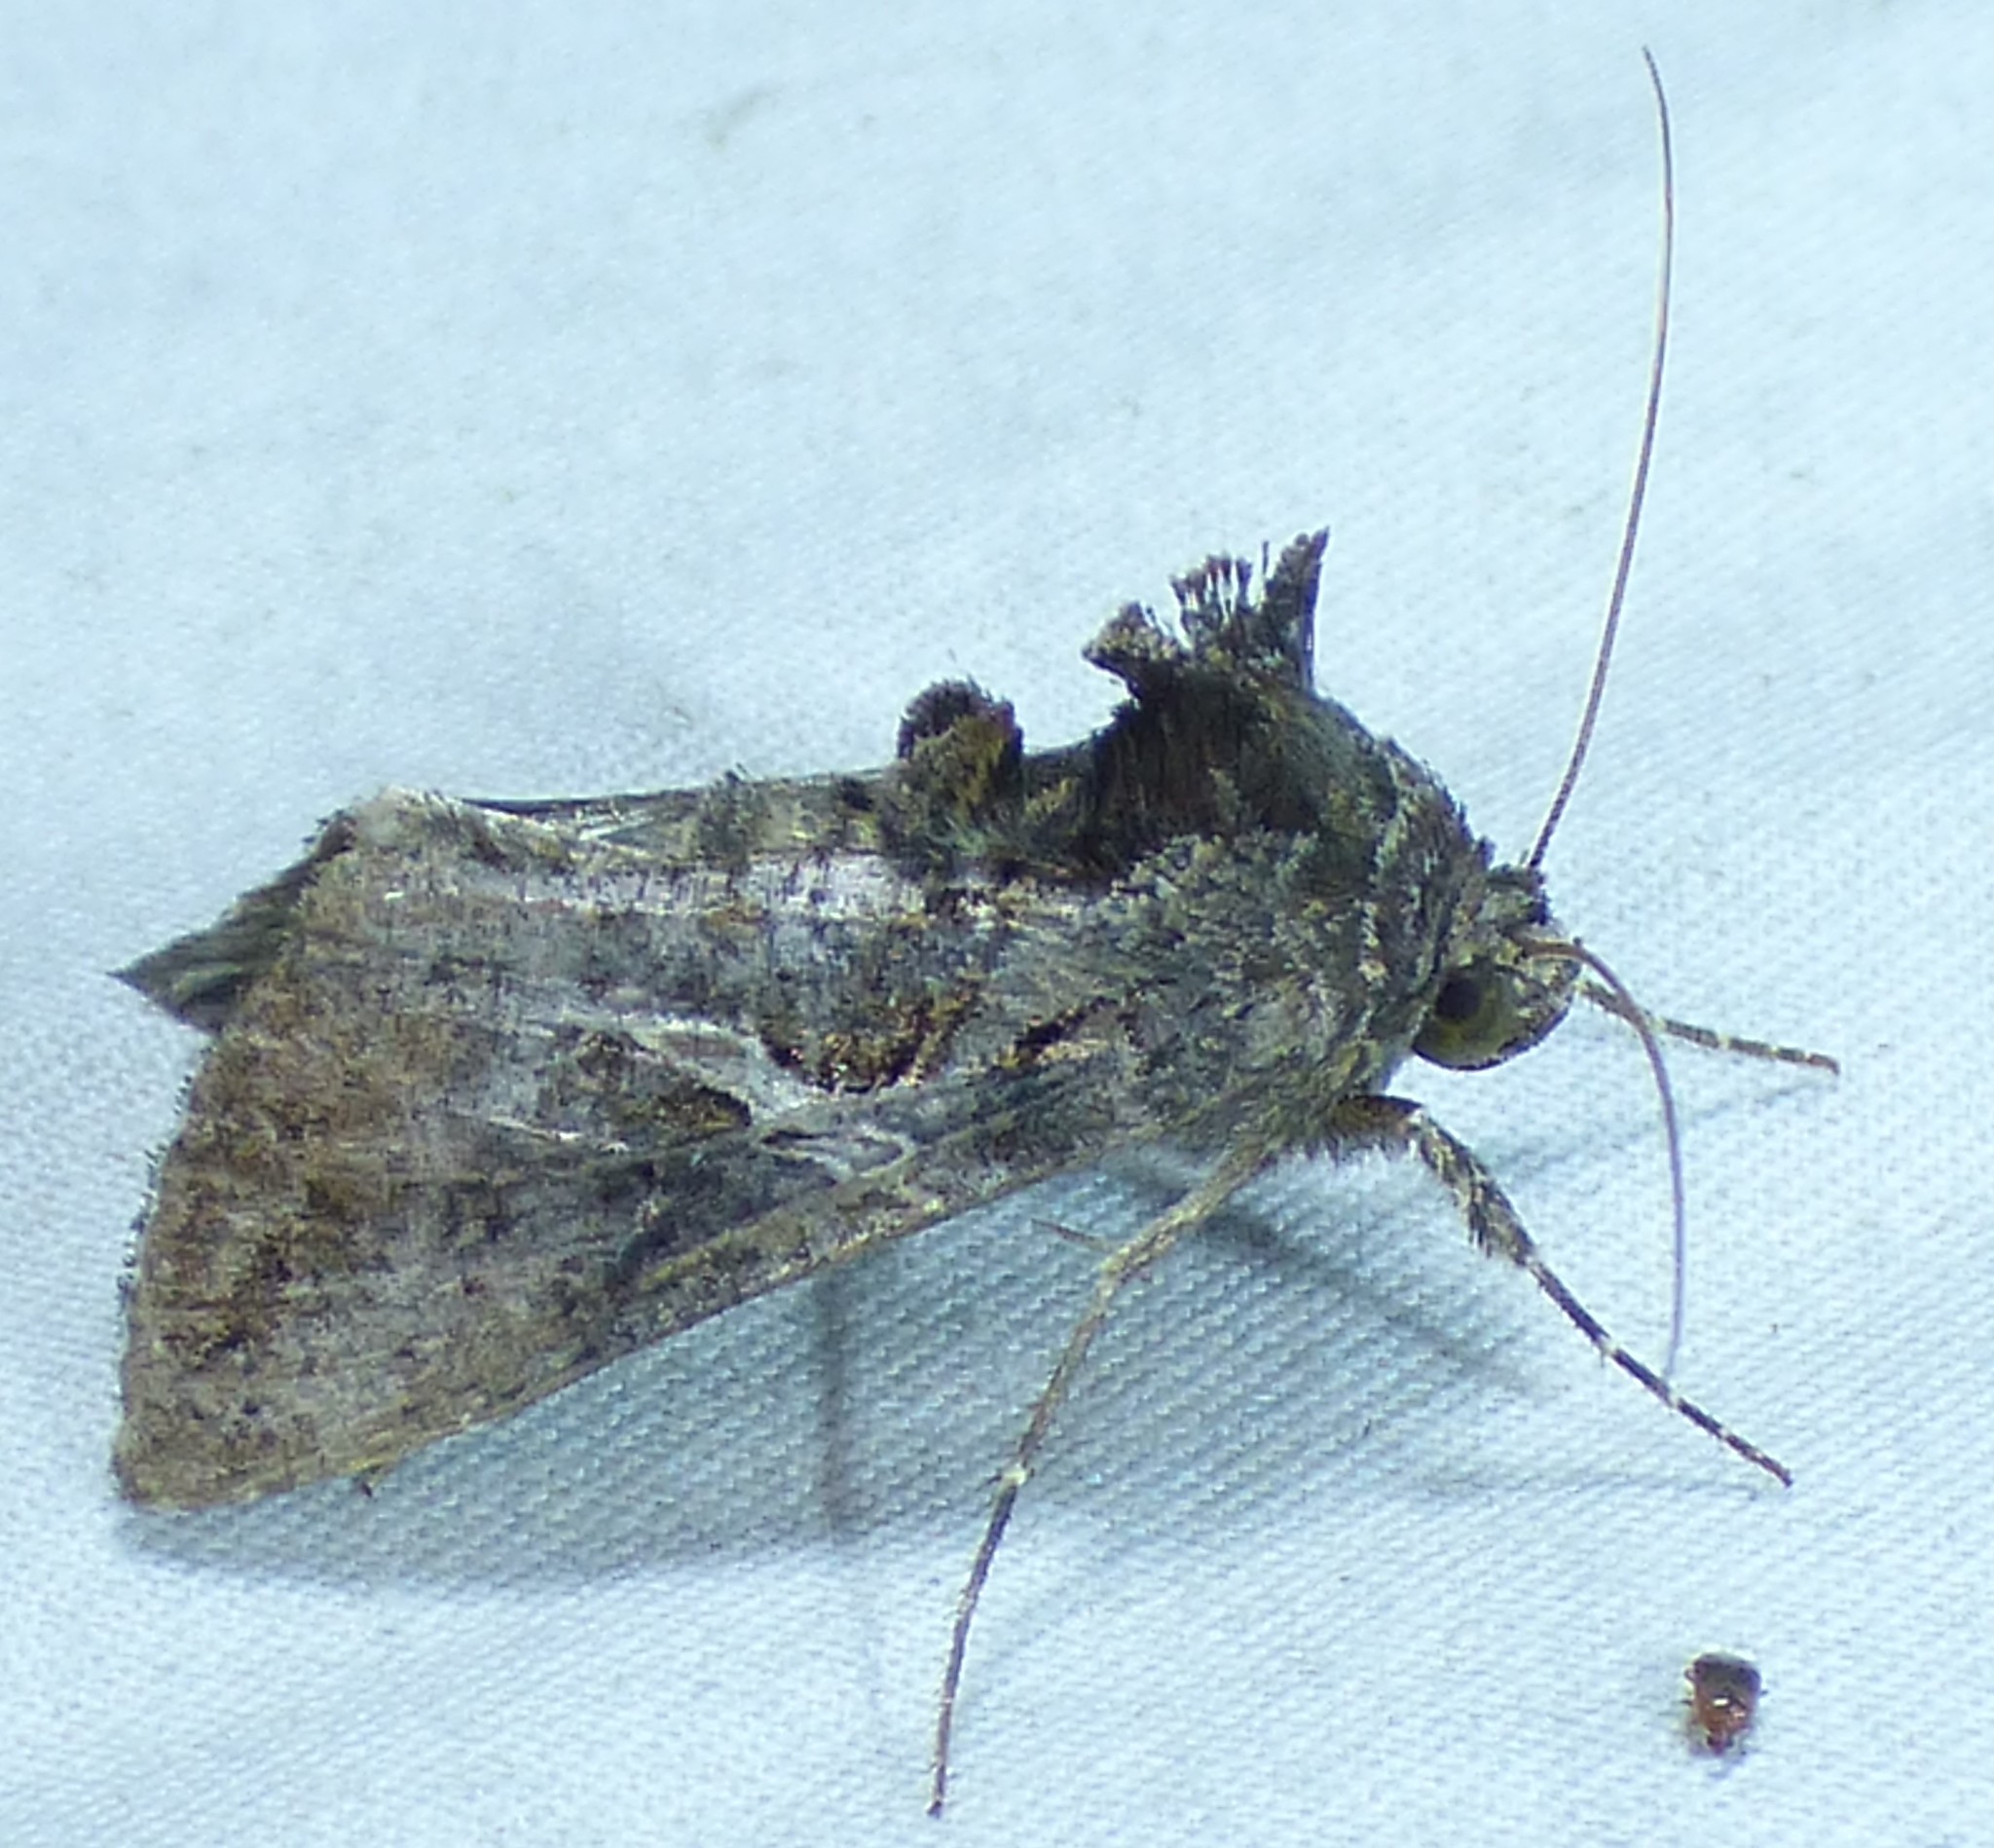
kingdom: Animalia
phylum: Arthropoda
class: Insecta
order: Lepidoptera
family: Noctuidae
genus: Ctenoplusia
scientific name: Ctenoplusia oxygramma
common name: Sharp-stigma looper moth
